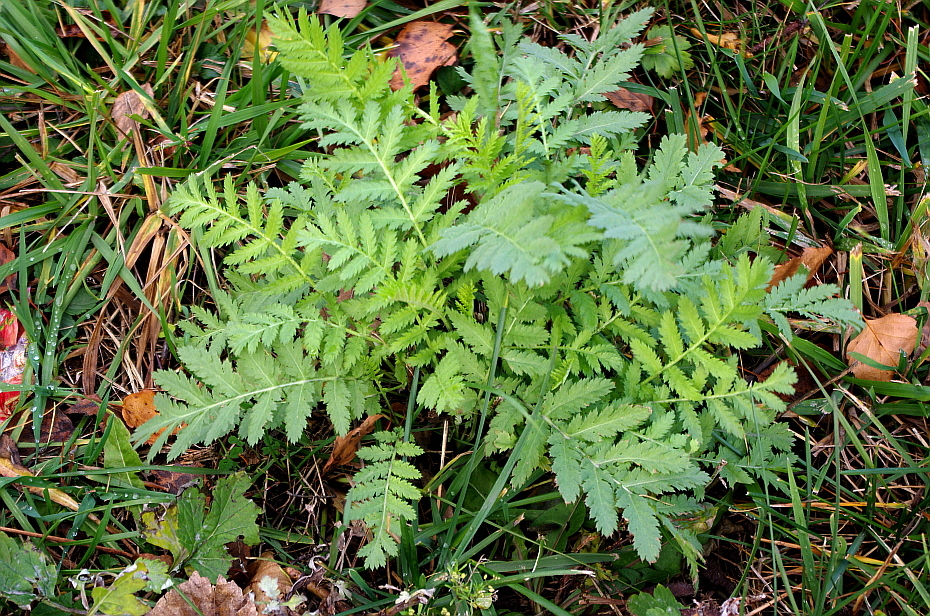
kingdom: Plantae
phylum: Tracheophyta
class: Magnoliopsida
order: Asterales
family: Asteraceae
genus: Tanacetum
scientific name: Tanacetum vulgare
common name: Common tansy
